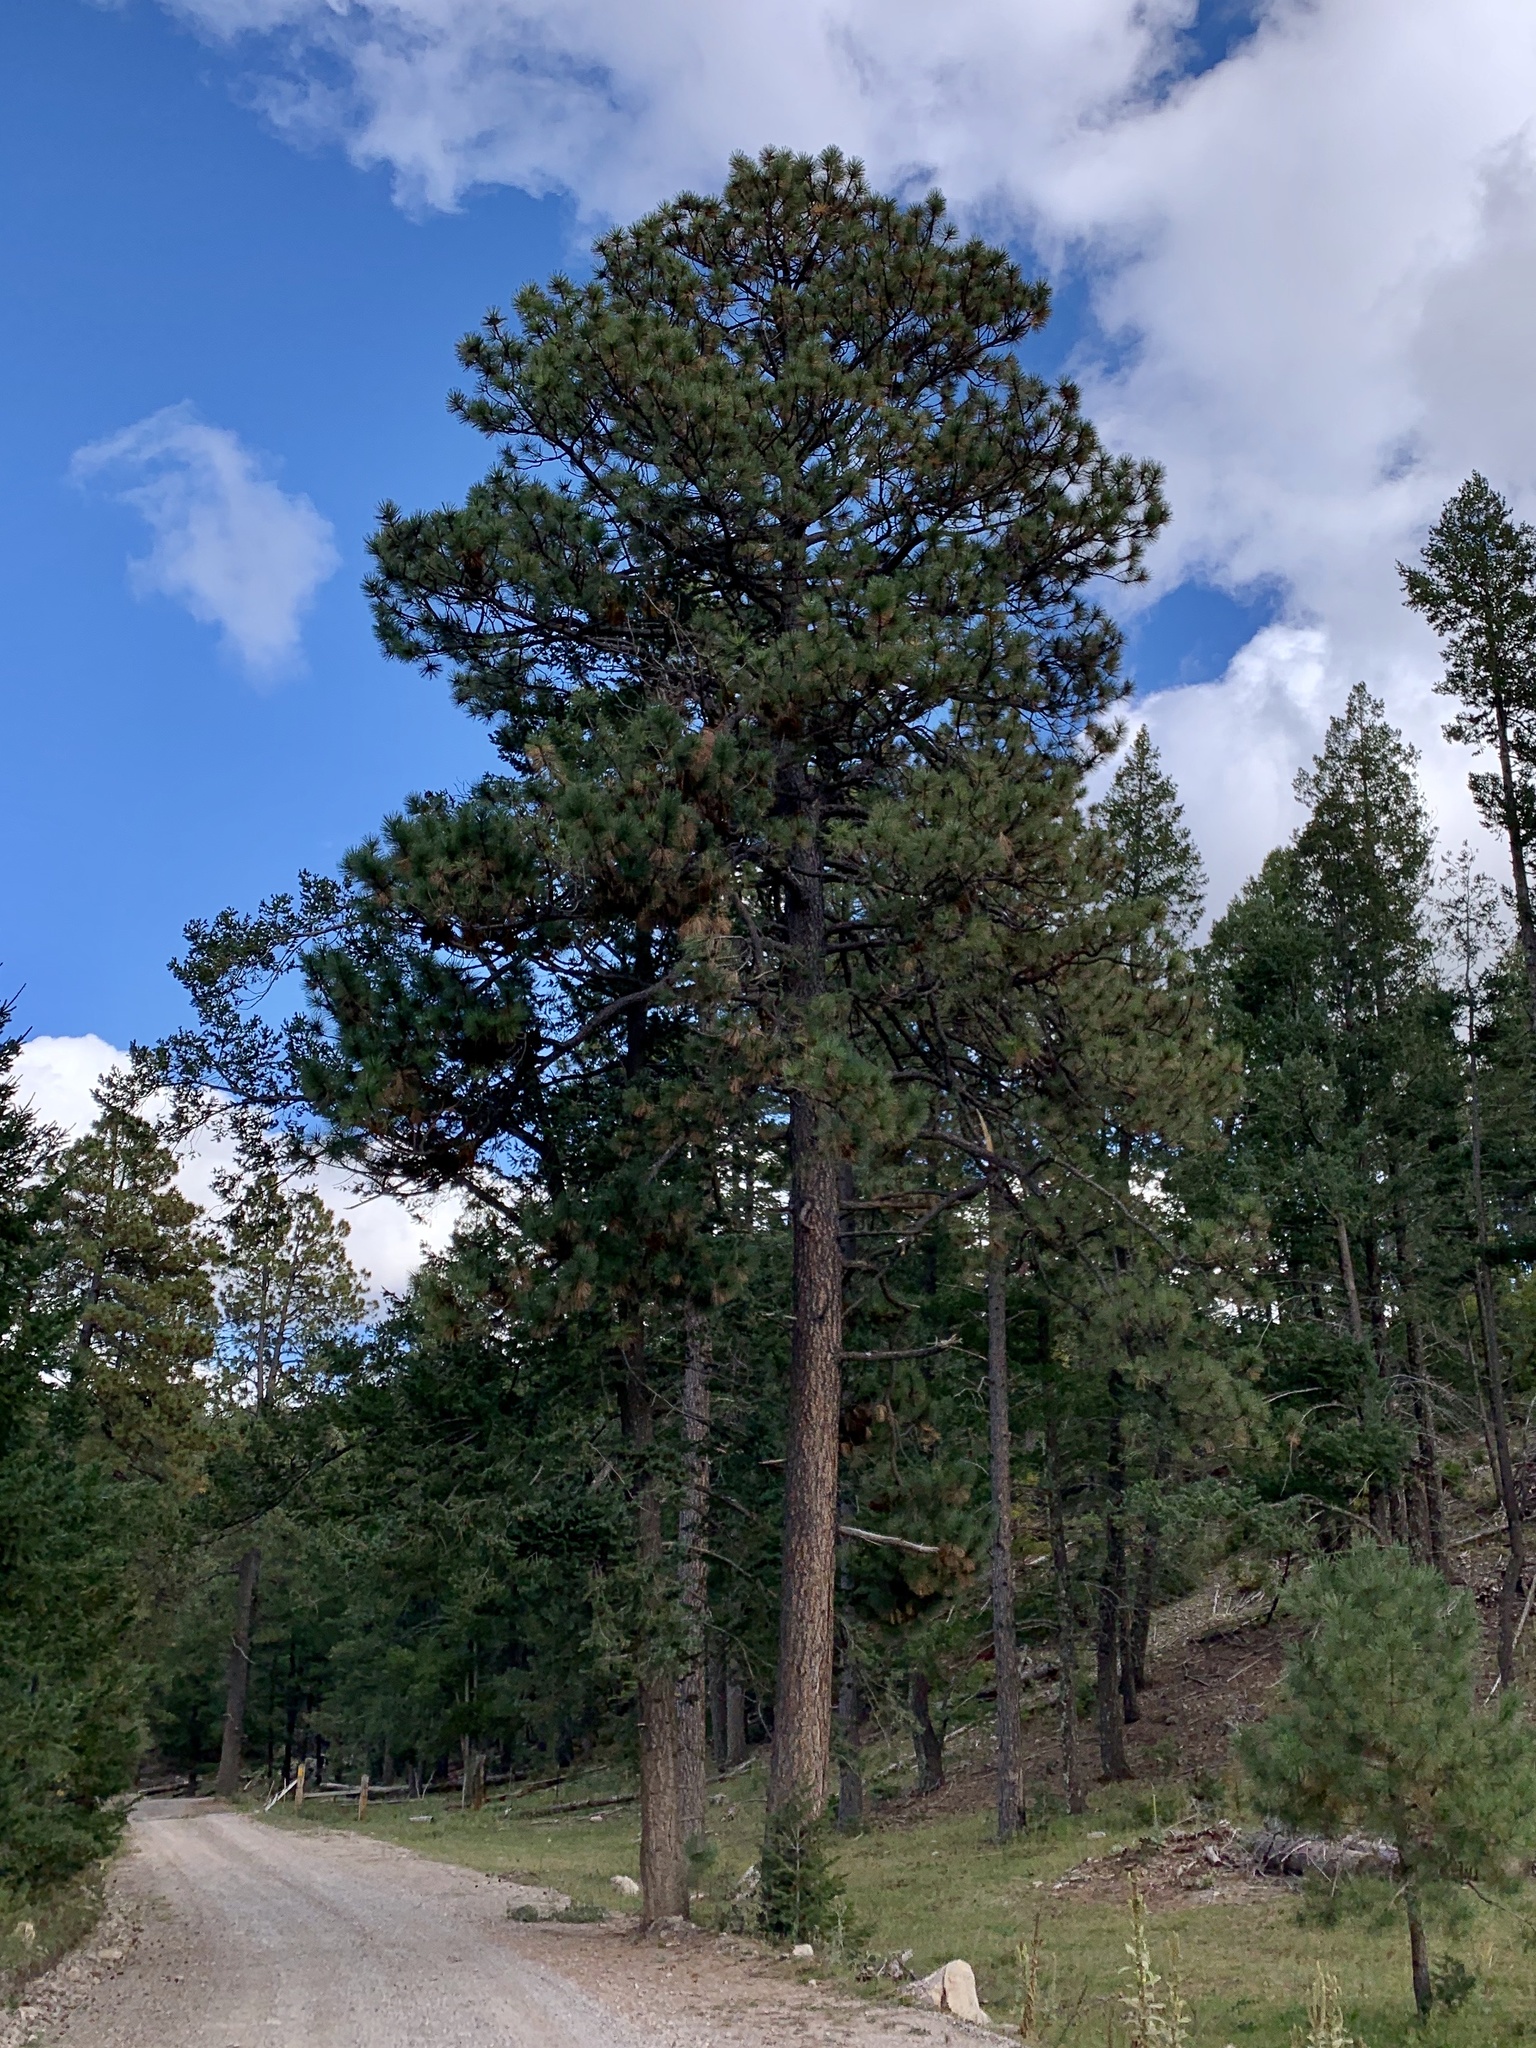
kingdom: Plantae
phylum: Tracheophyta
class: Pinopsida
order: Pinales
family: Pinaceae
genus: Pinus
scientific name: Pinus ponderosa
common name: Western yellow-pine
